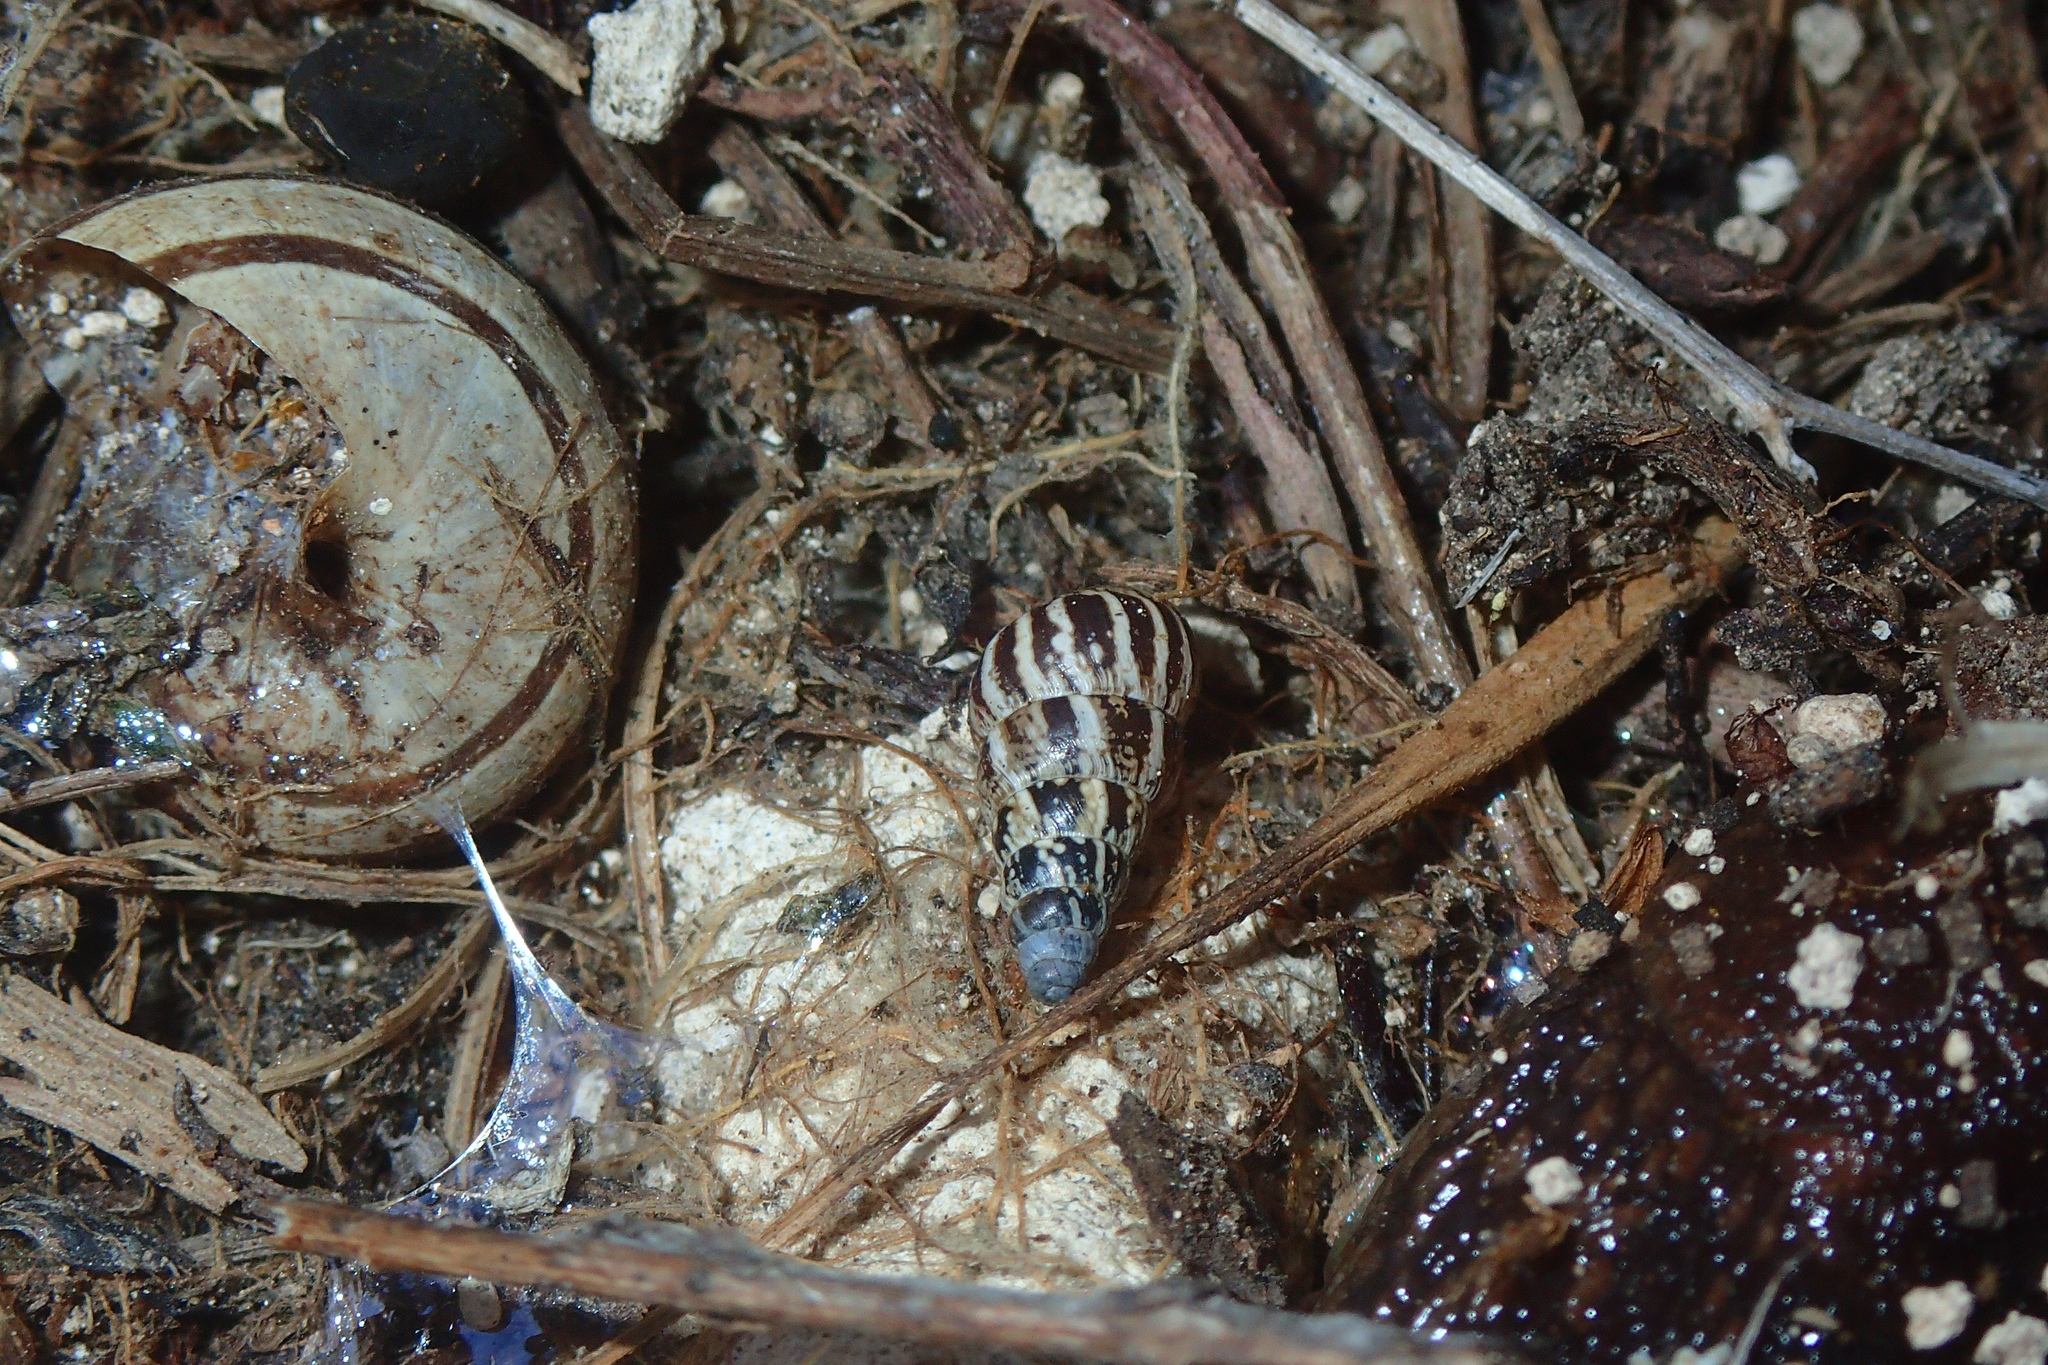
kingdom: Animalia
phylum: Mollusca
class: Gastropoda
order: Stylommatophora
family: Geomitridae
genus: Cochlicella
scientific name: Cochlicella acuta
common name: Pointed snail
